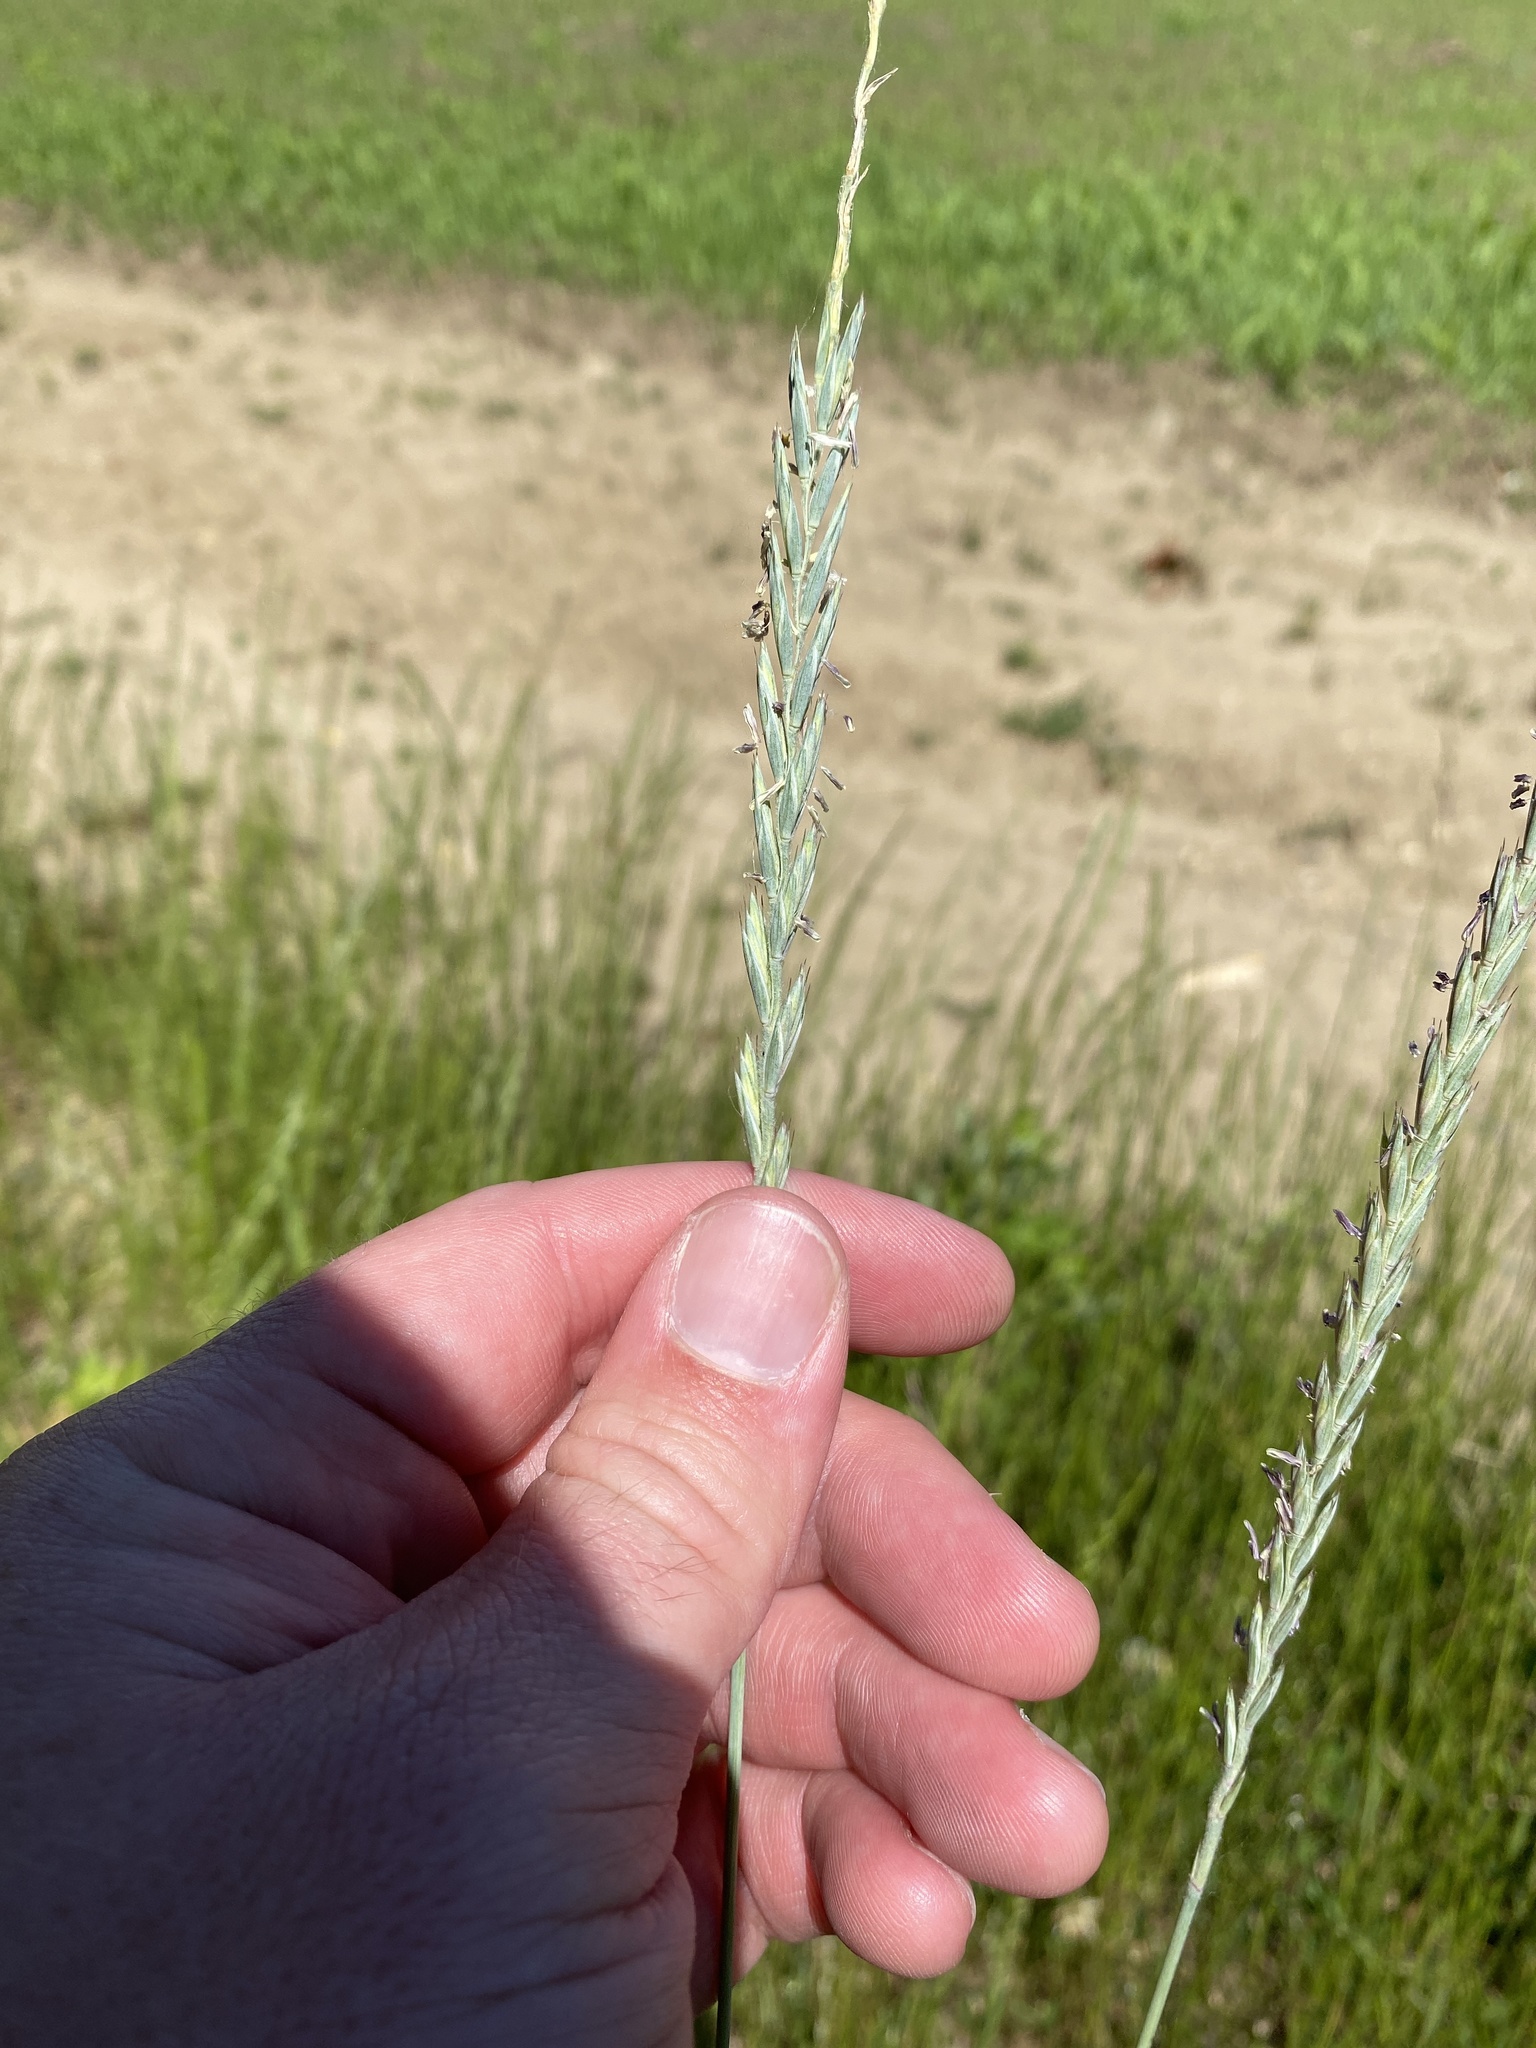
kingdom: Plantae
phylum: Tracheophyta
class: Liliopsida
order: Poales
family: Poaceae
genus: Elymus
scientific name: Elymus repens
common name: Quackgrass
